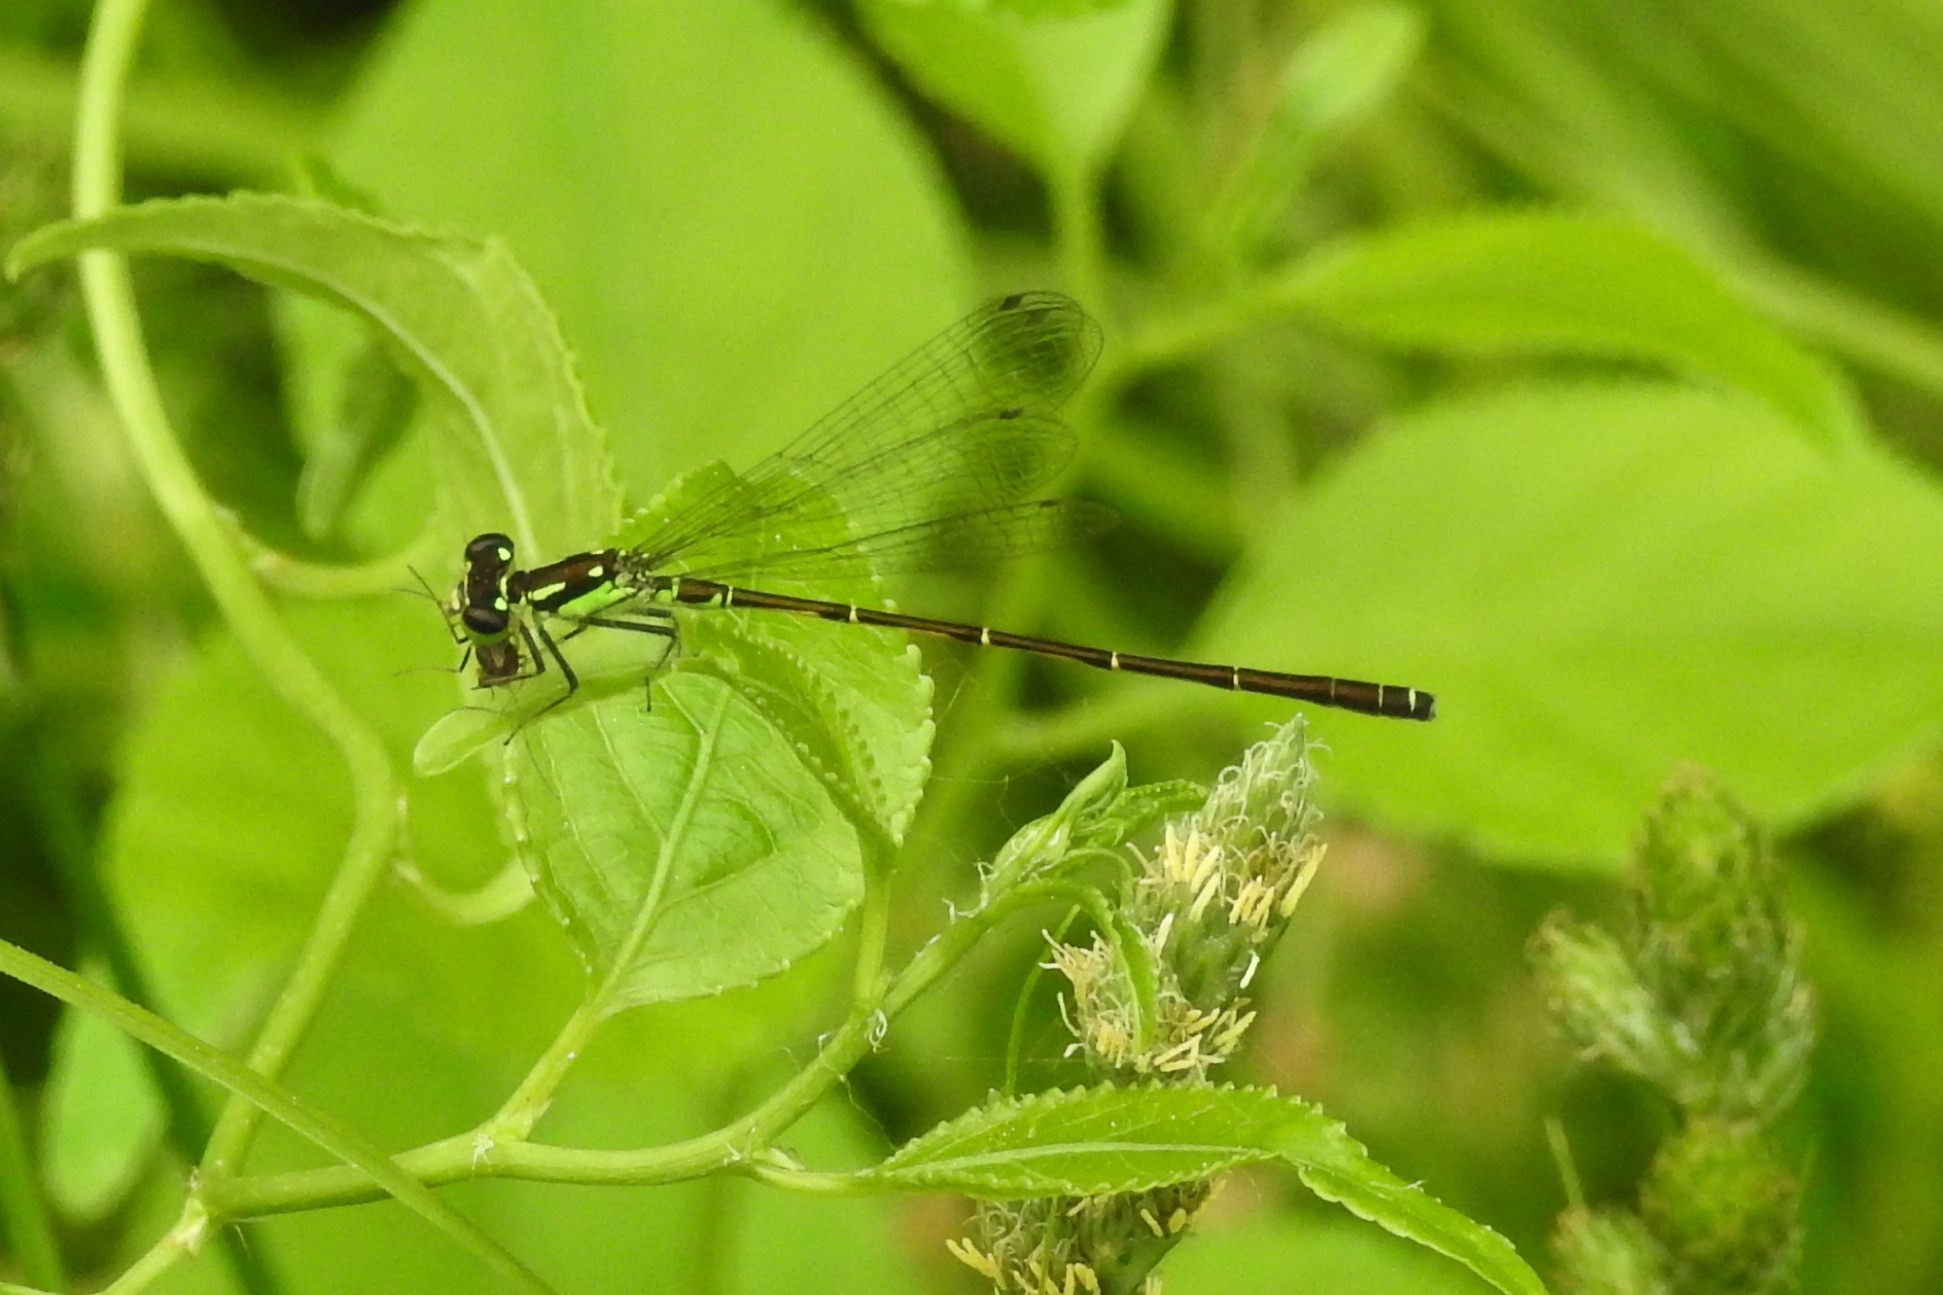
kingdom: Animalia
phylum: Arthropoda
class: Insecta
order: Odonata
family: Coenagrionidae
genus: Ischnura
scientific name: Ischnura posita
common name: Fragile forktail
